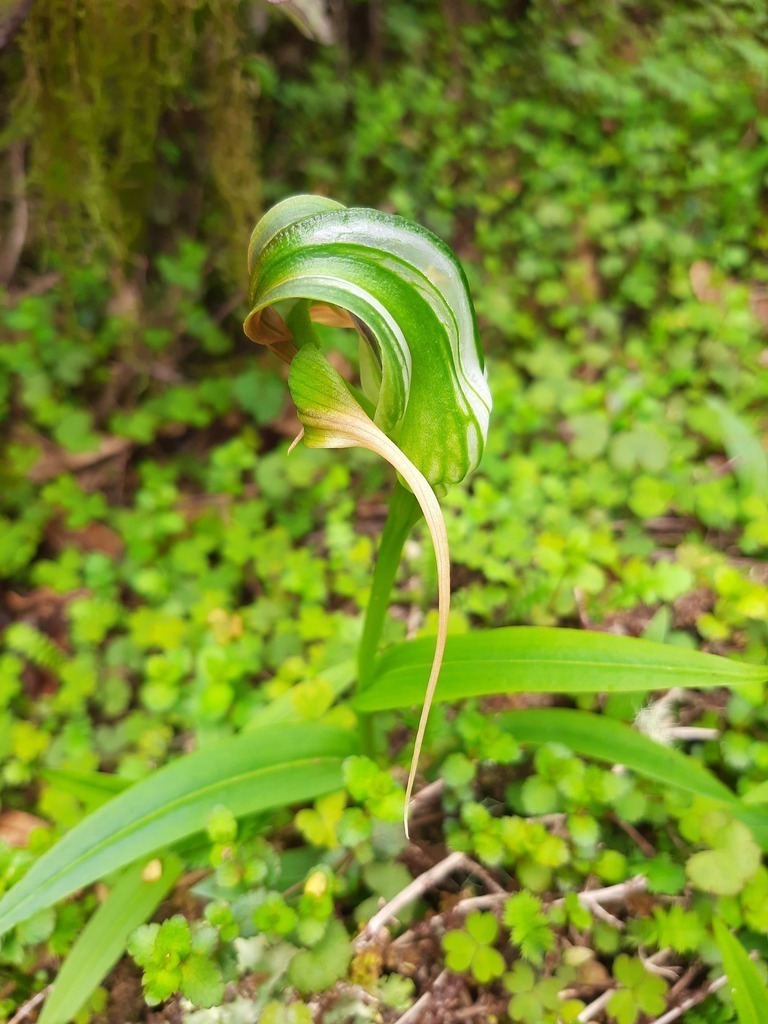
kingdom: Plantae
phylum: Tracheophyta
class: Liliopsida
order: Asparagales
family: Orchidaceae
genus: Pterostylis
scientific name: Pterostylis patens
